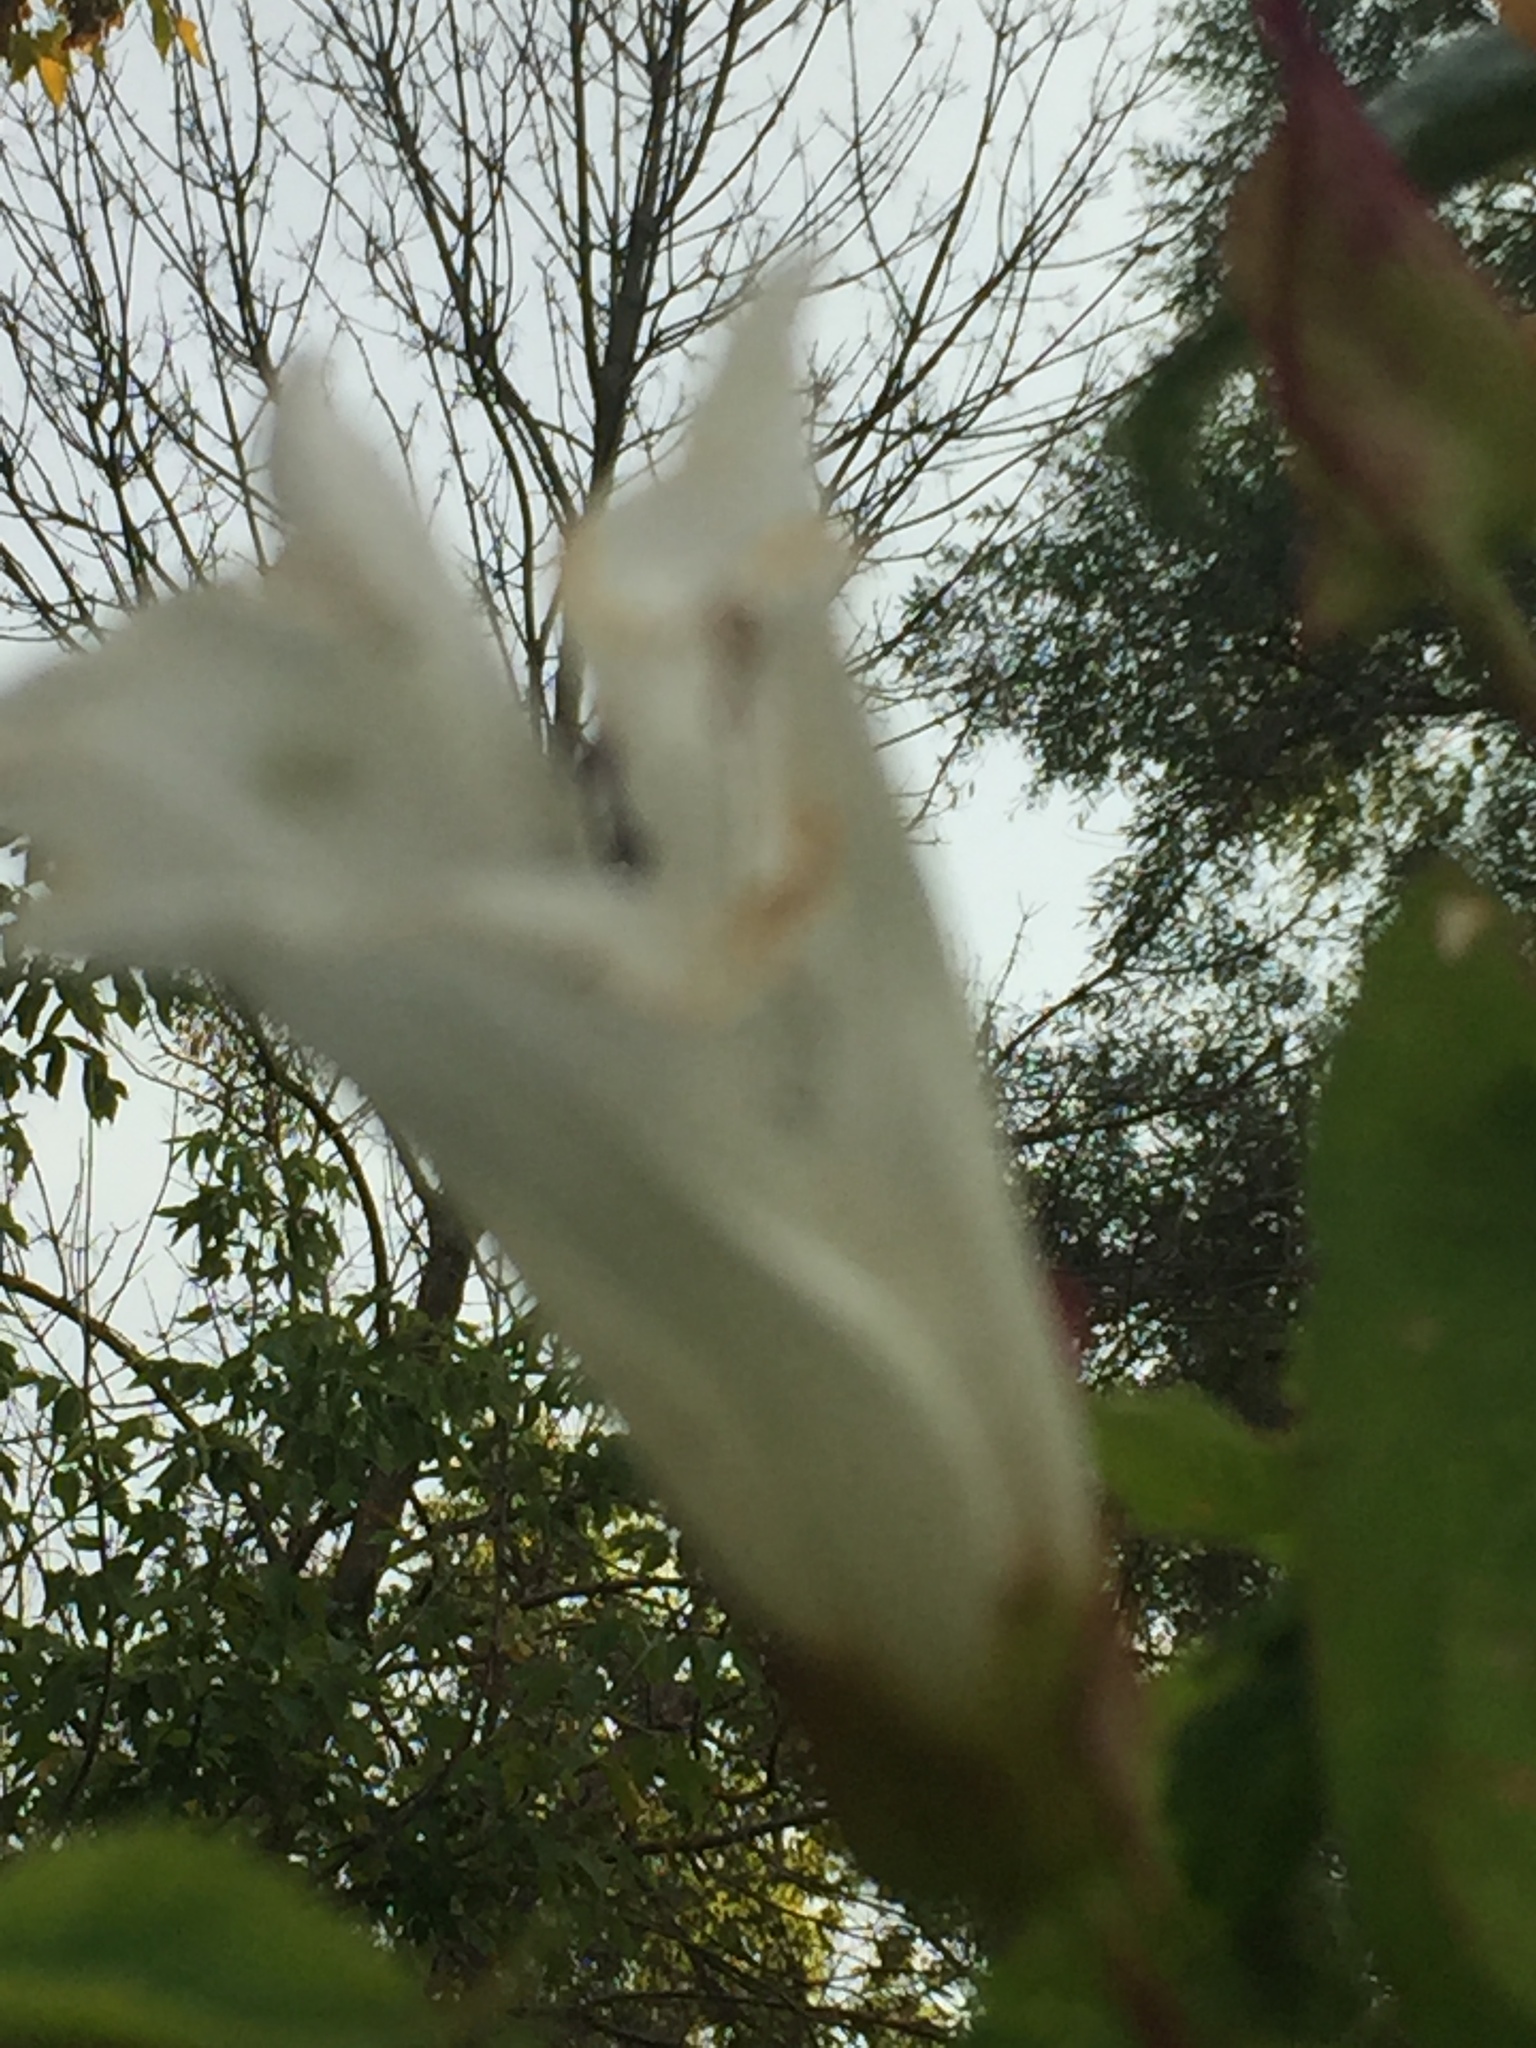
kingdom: Plantae
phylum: Tracheophyta
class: Magnoliopsida
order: Solanales
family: Convolvulaceae
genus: Calystegia
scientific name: Calystegia sepium
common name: Hedge bindweed
